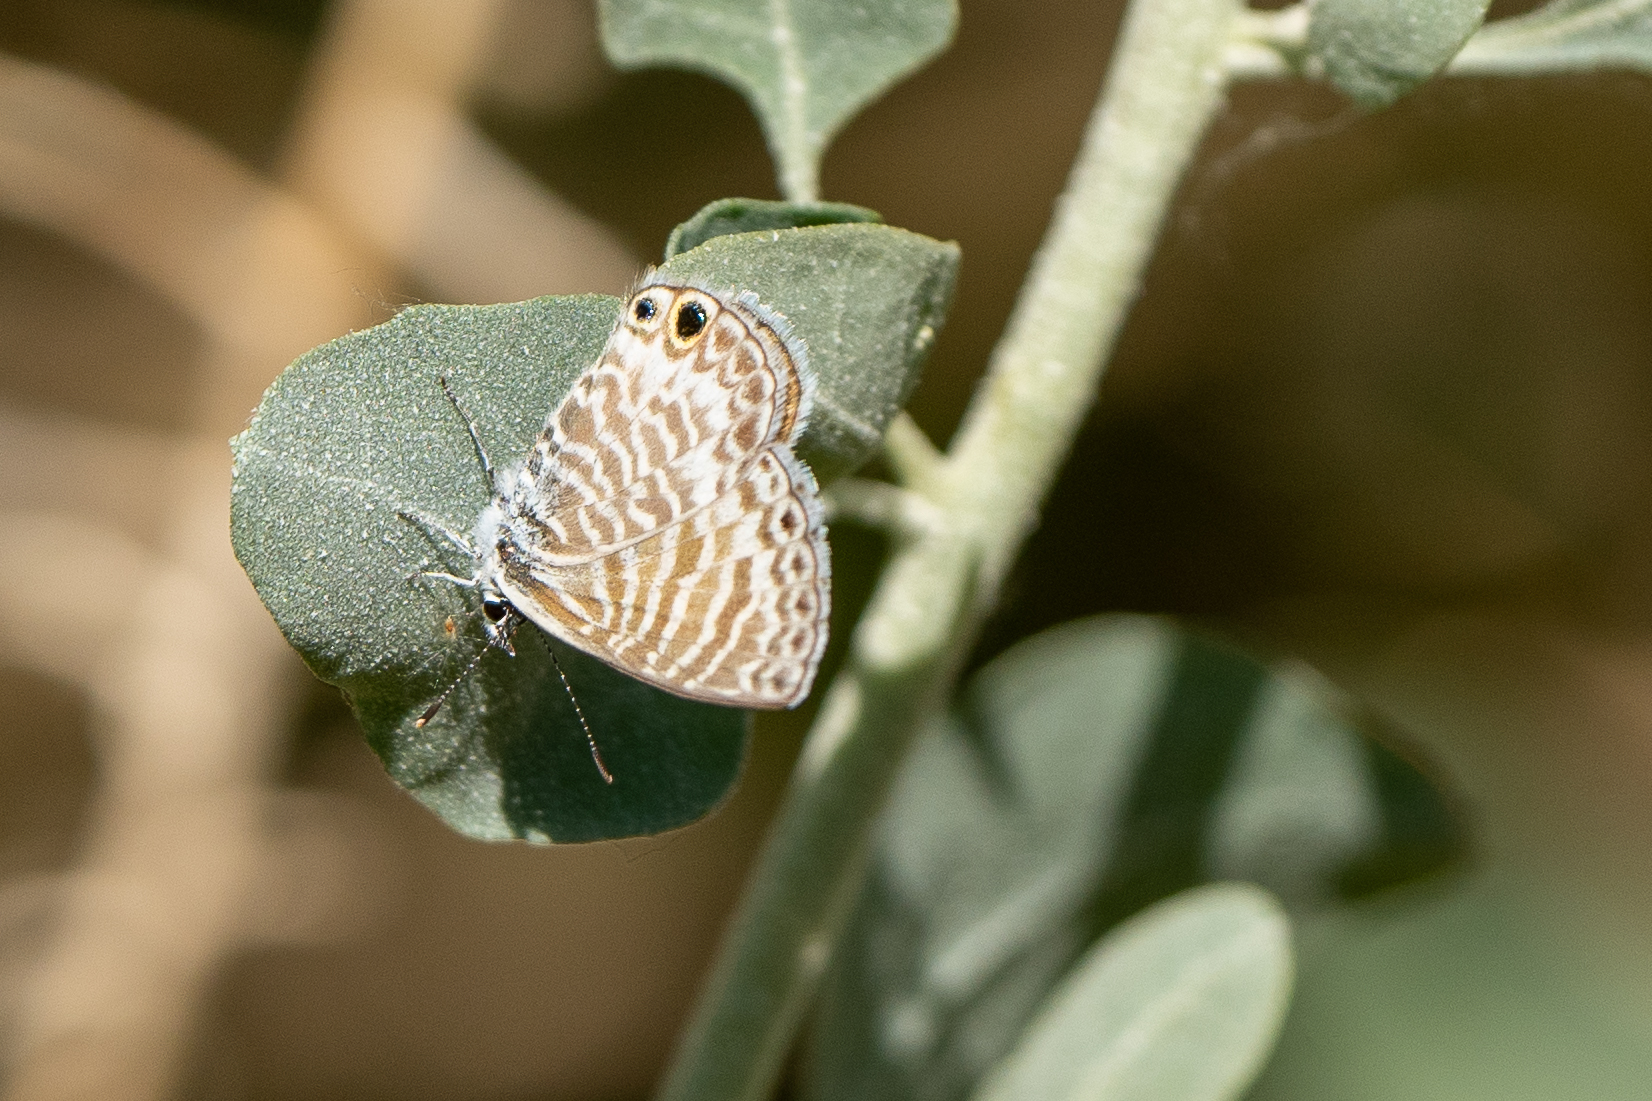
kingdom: Animalia
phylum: Arthropoda
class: Insecta
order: Lepidoptera
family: Lycaenidae
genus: Leptotes
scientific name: Leptotes marina
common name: Marine blue
